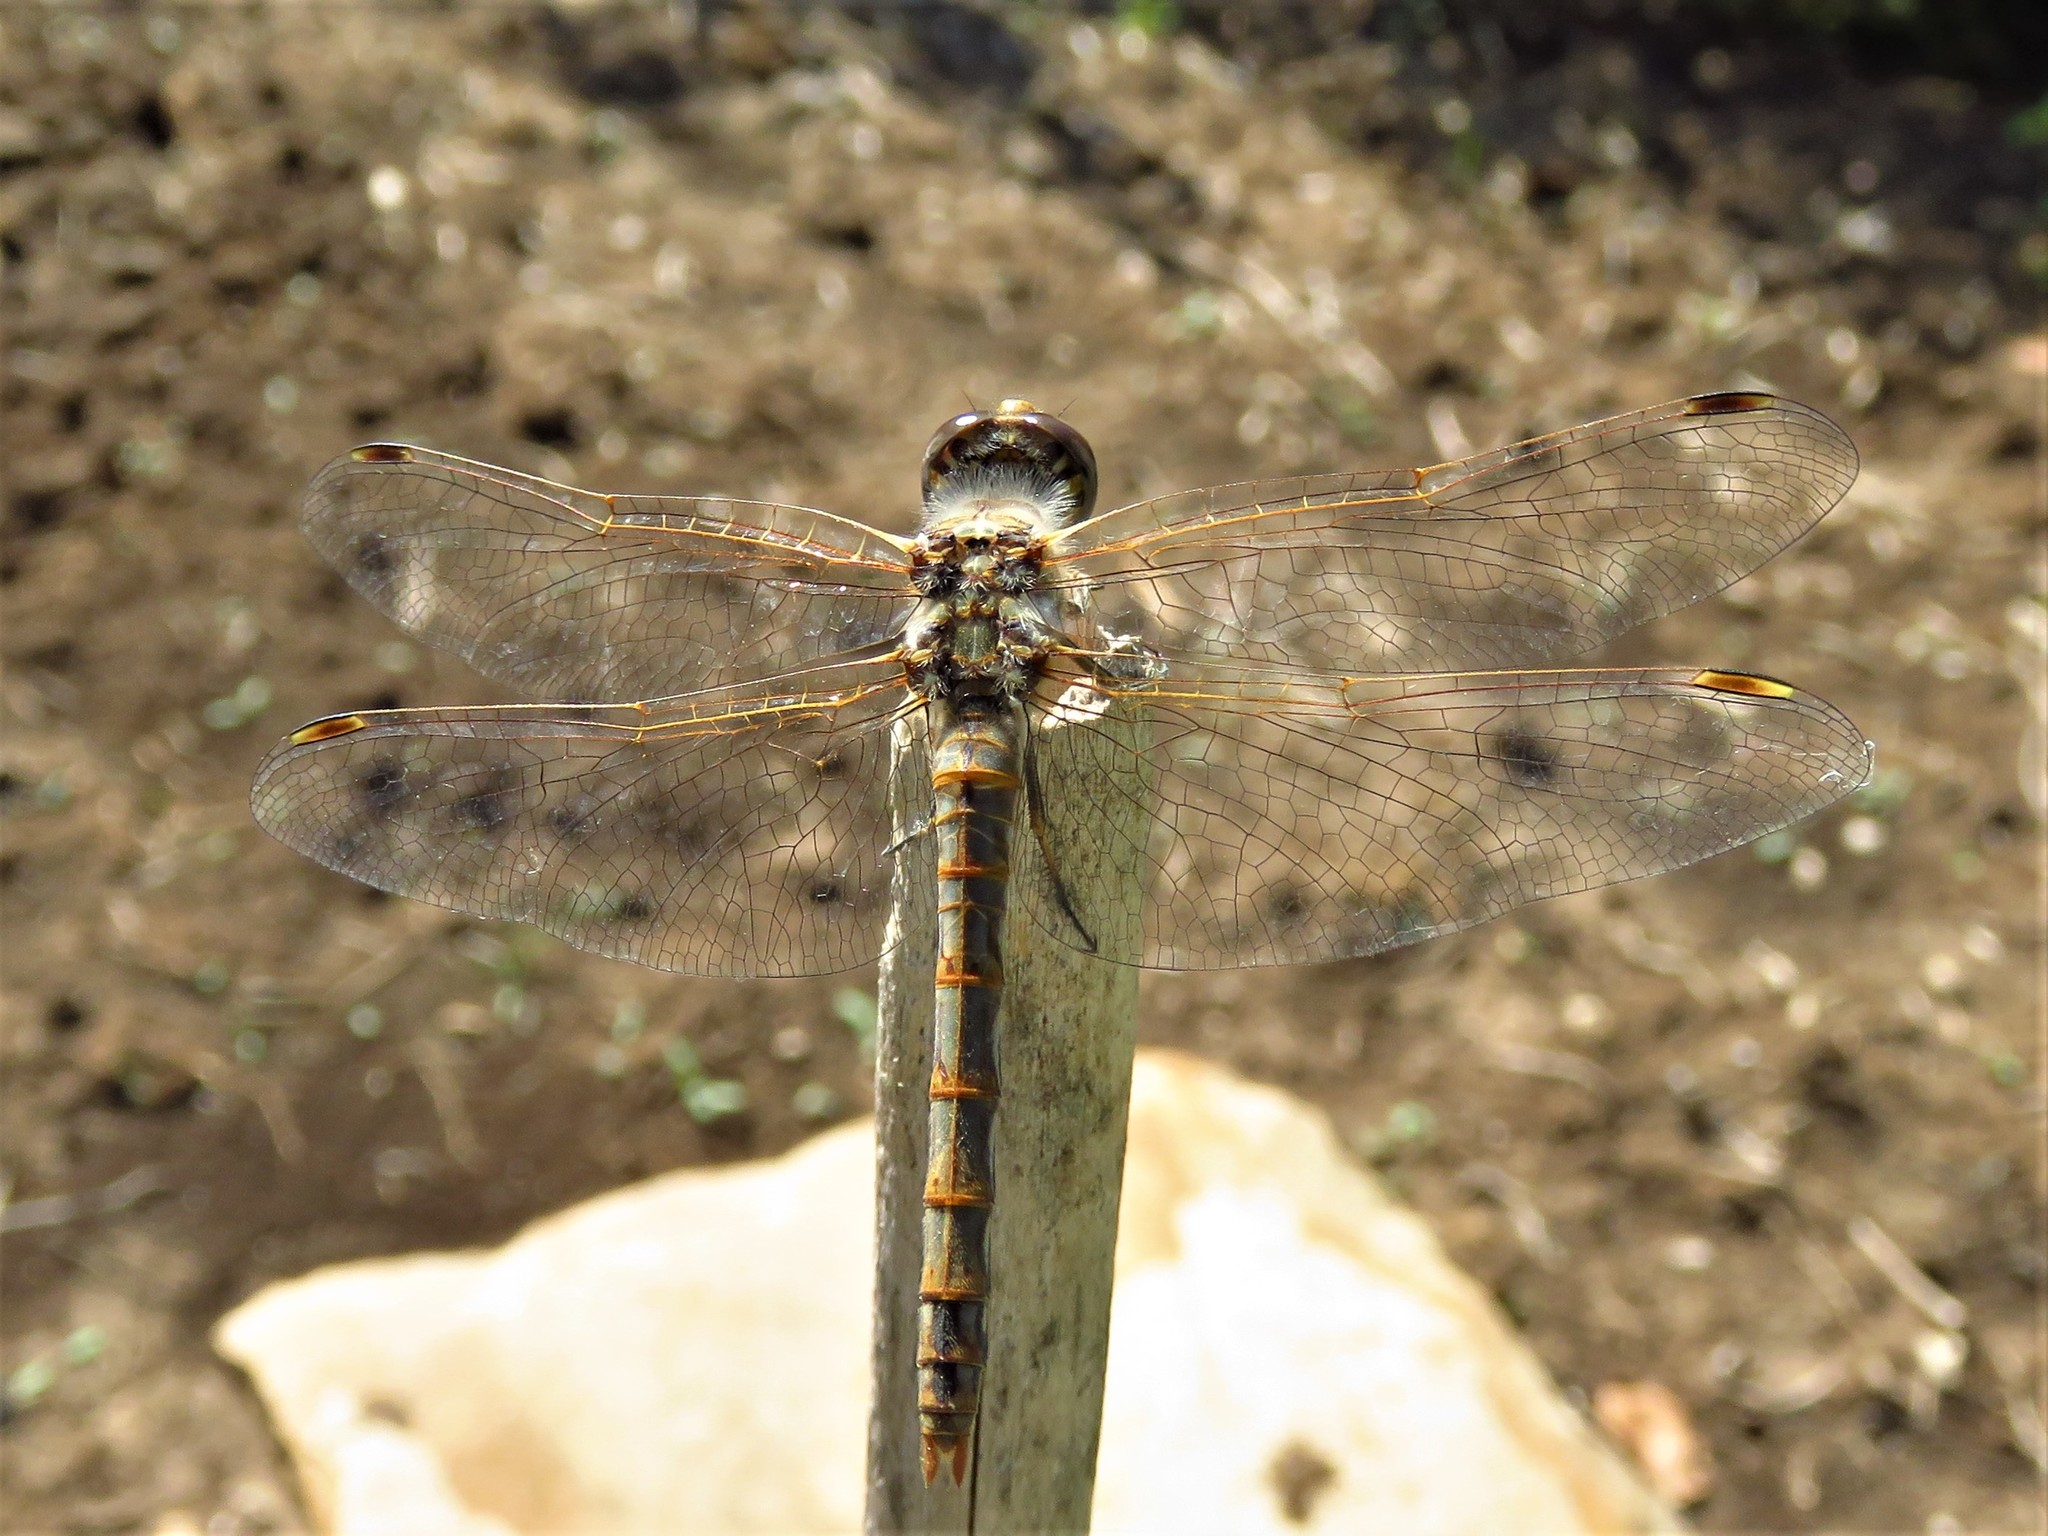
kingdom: Animalia
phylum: Arthropoda
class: Insecta
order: Odonata
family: Libellulidae
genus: Sympetrum
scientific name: Sympetrum corruptum
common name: Variegated meadowhawk
